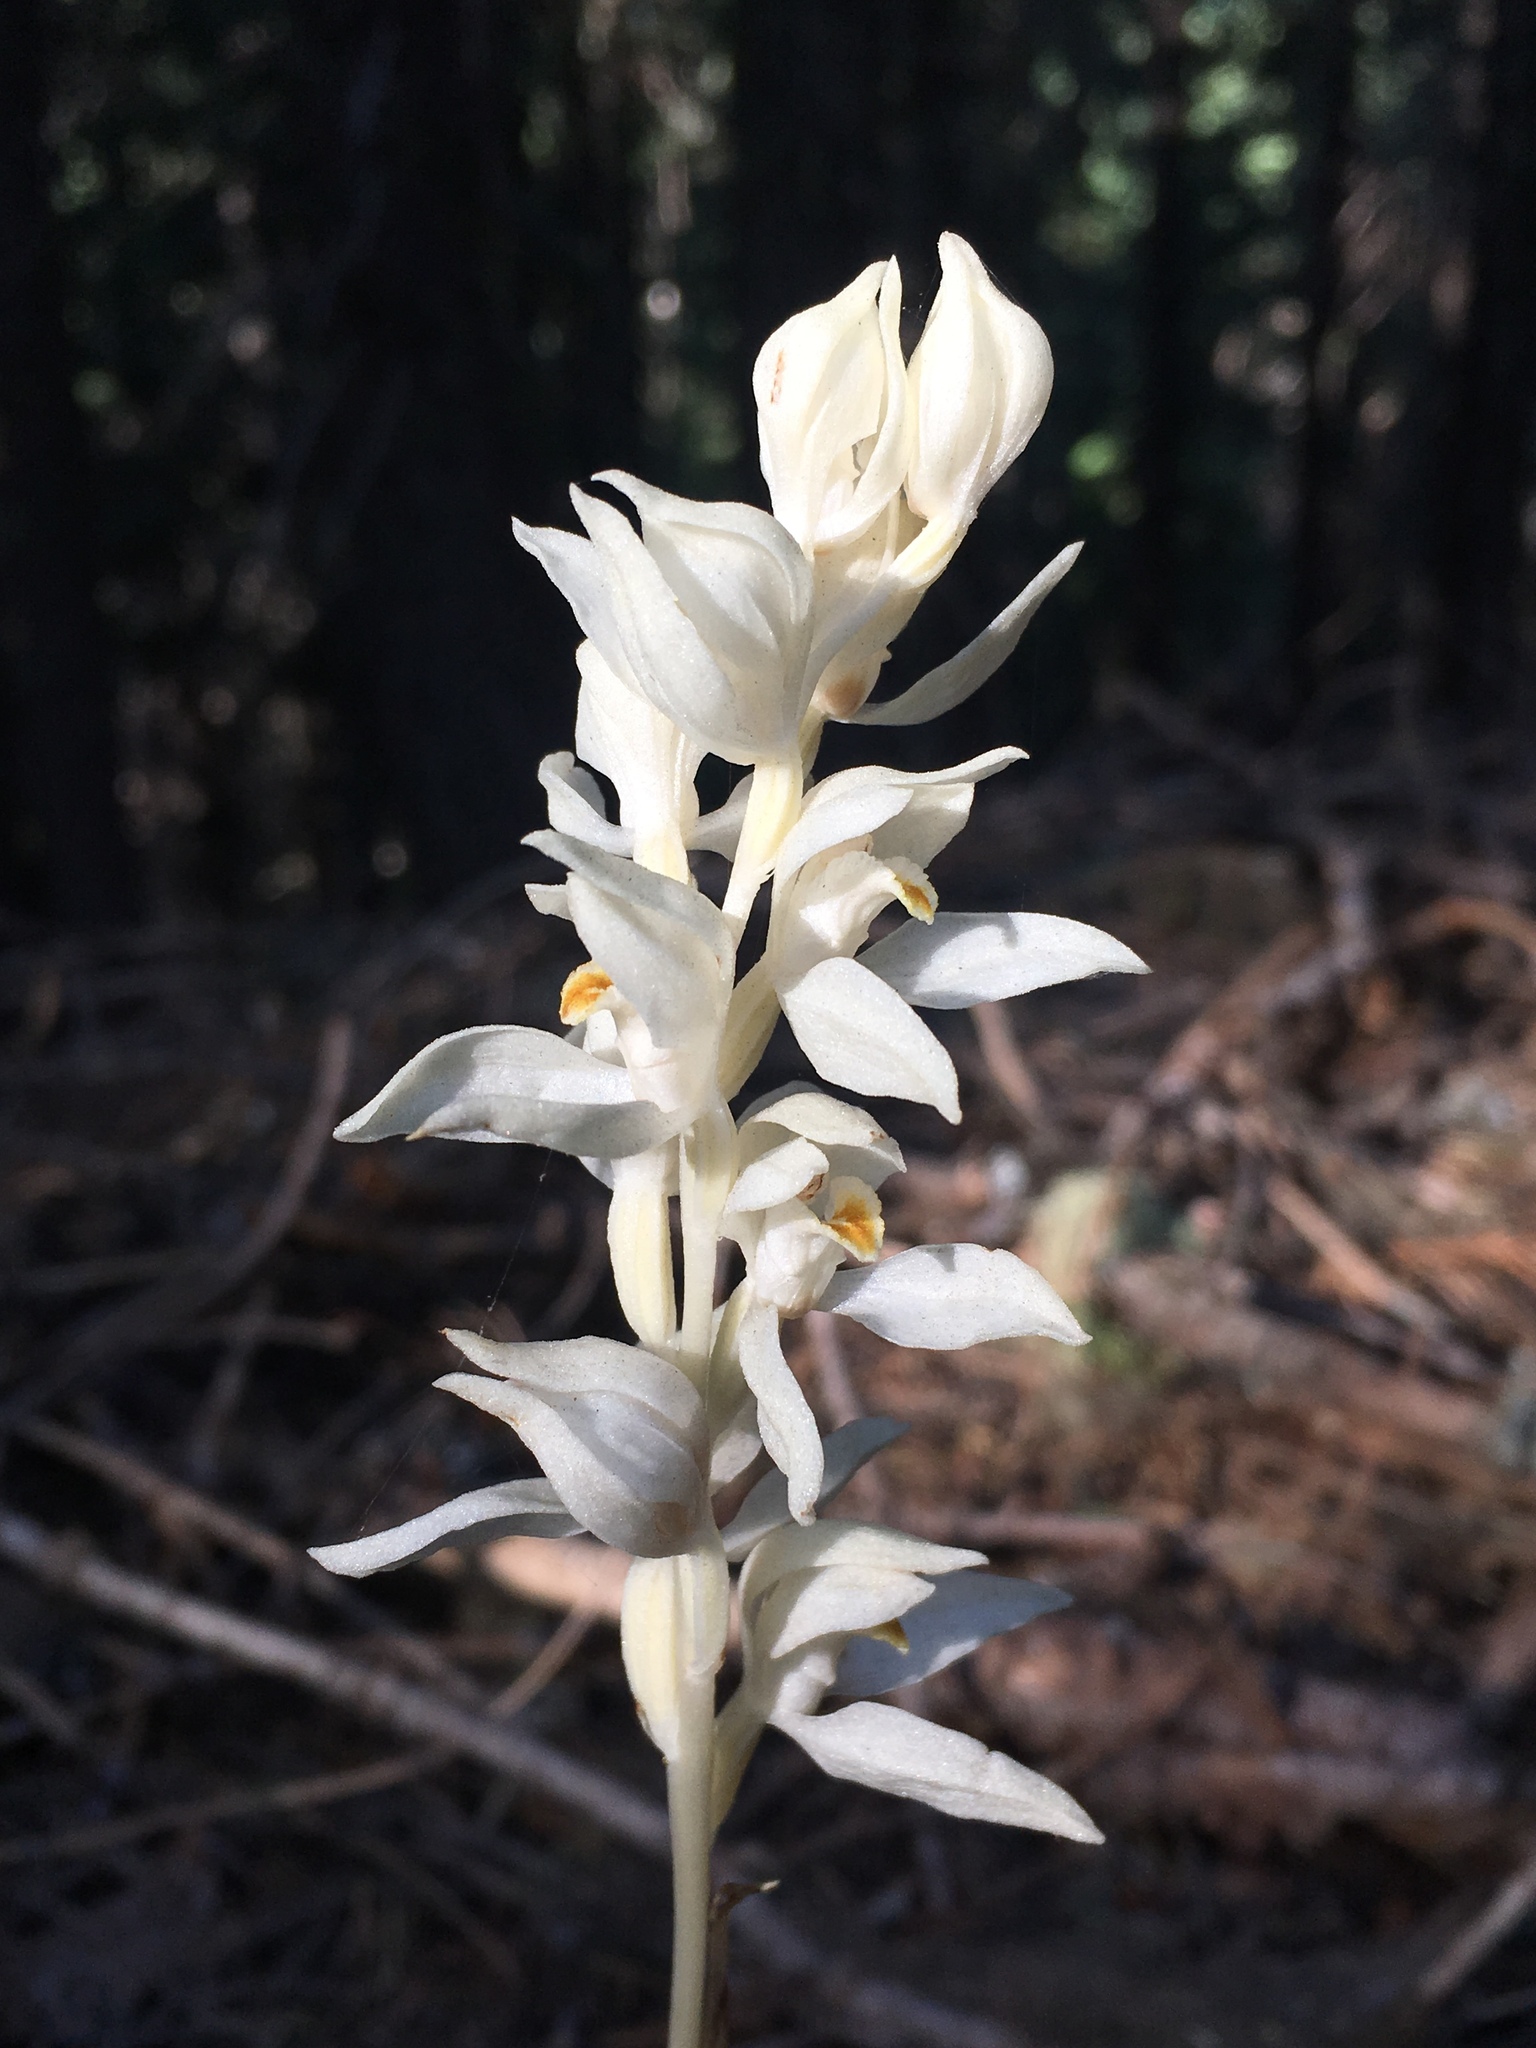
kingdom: Plantae
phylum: Tracheophyta
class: Liliopsida
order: Asparagales
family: Orchidaceae
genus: Cephalanthera
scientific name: Cephalanthera austiniae
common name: Phantom orchid
